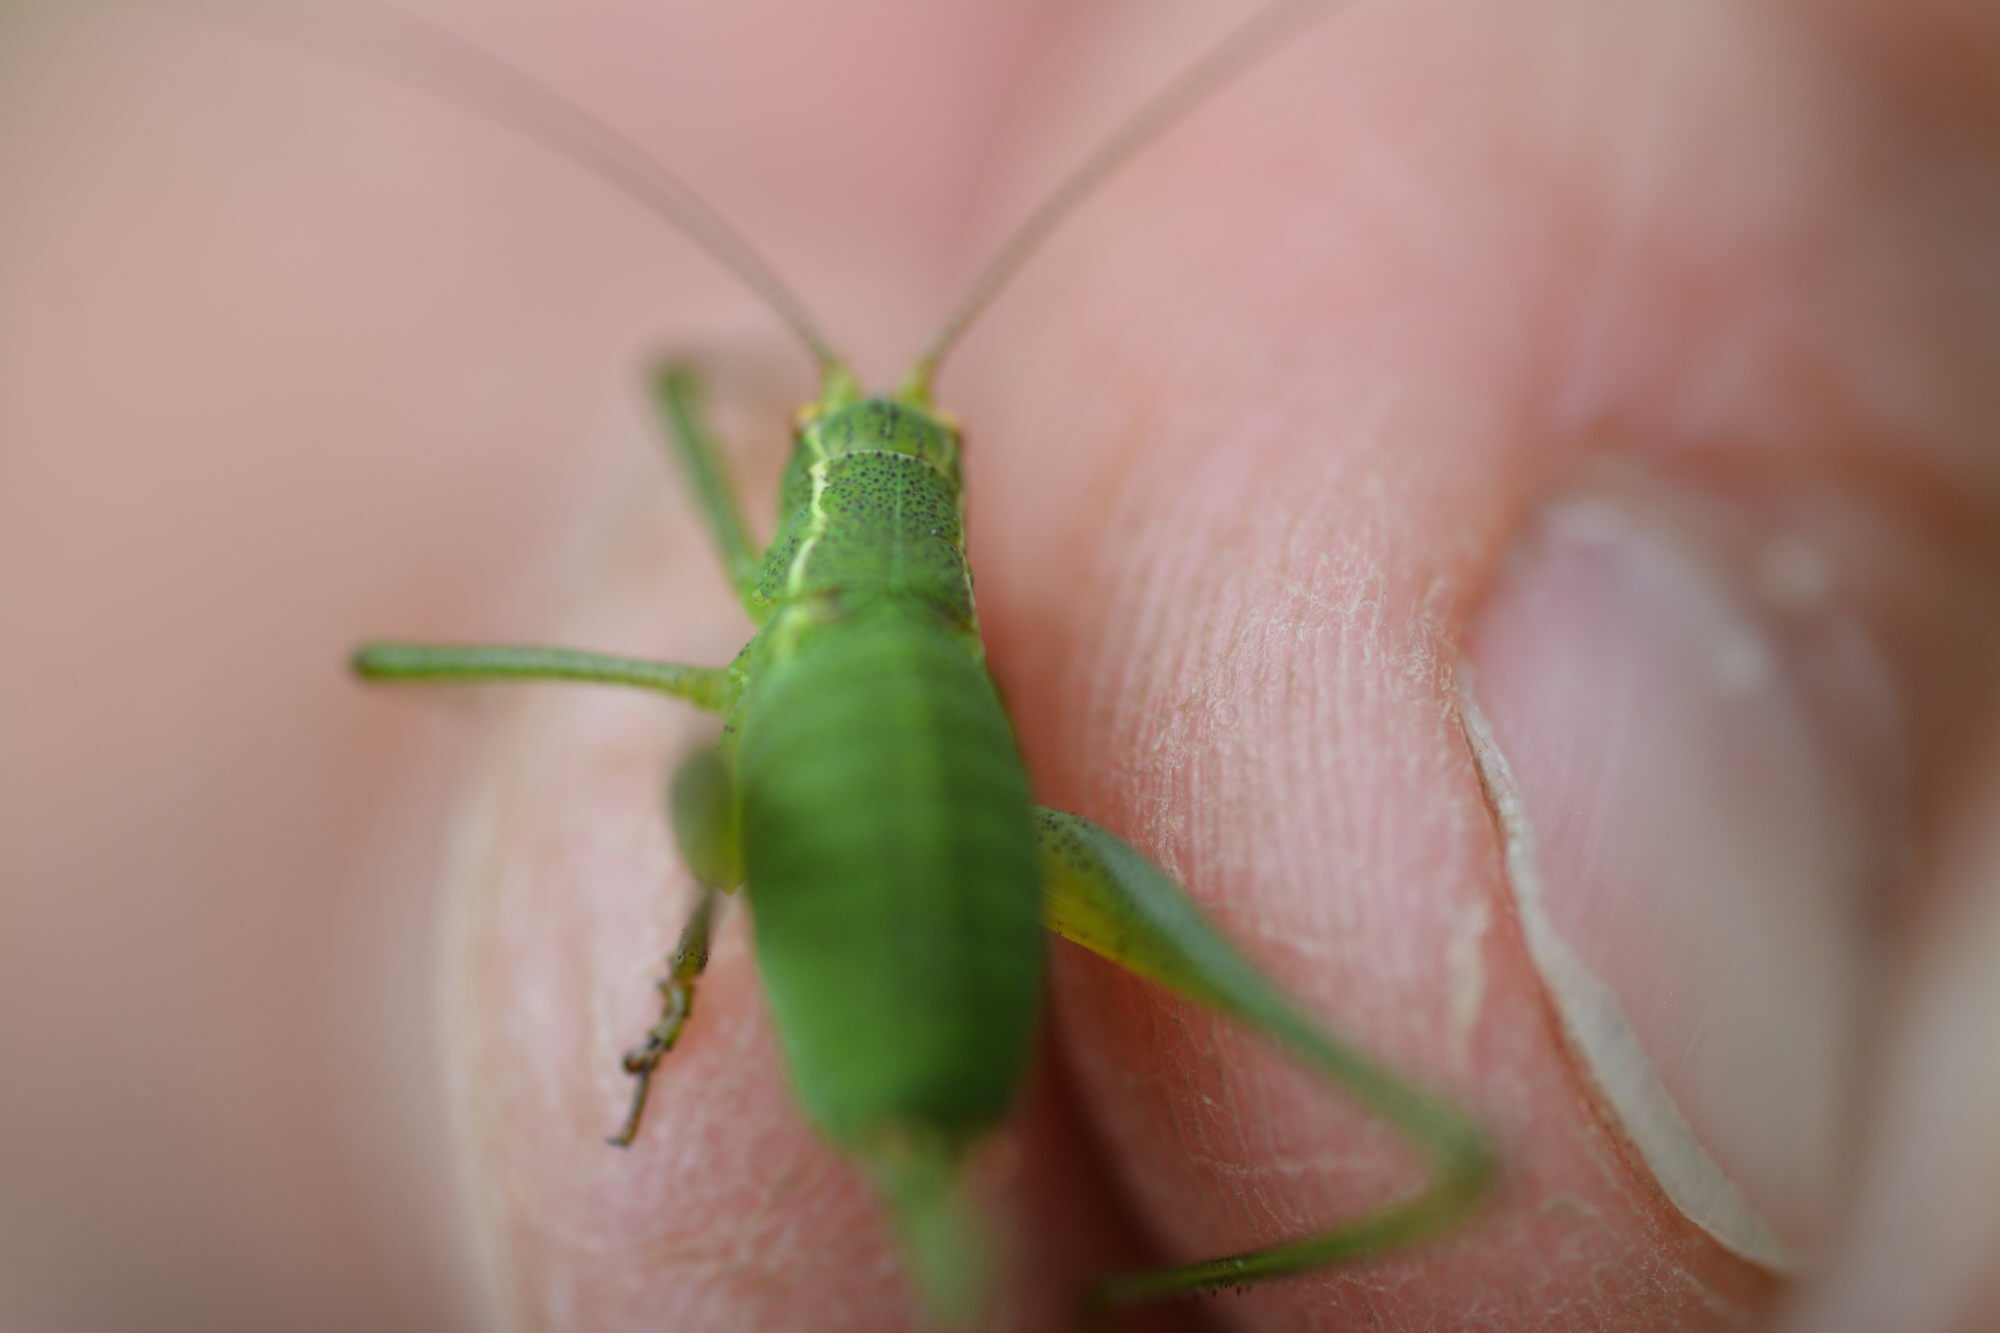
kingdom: Animalia
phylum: Arthropoda
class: Insecta
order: Orthoptera
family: Tettigoniidae
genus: Leptophyes
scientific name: Leptophyes punctatissima
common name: Speckled bush-cricket
